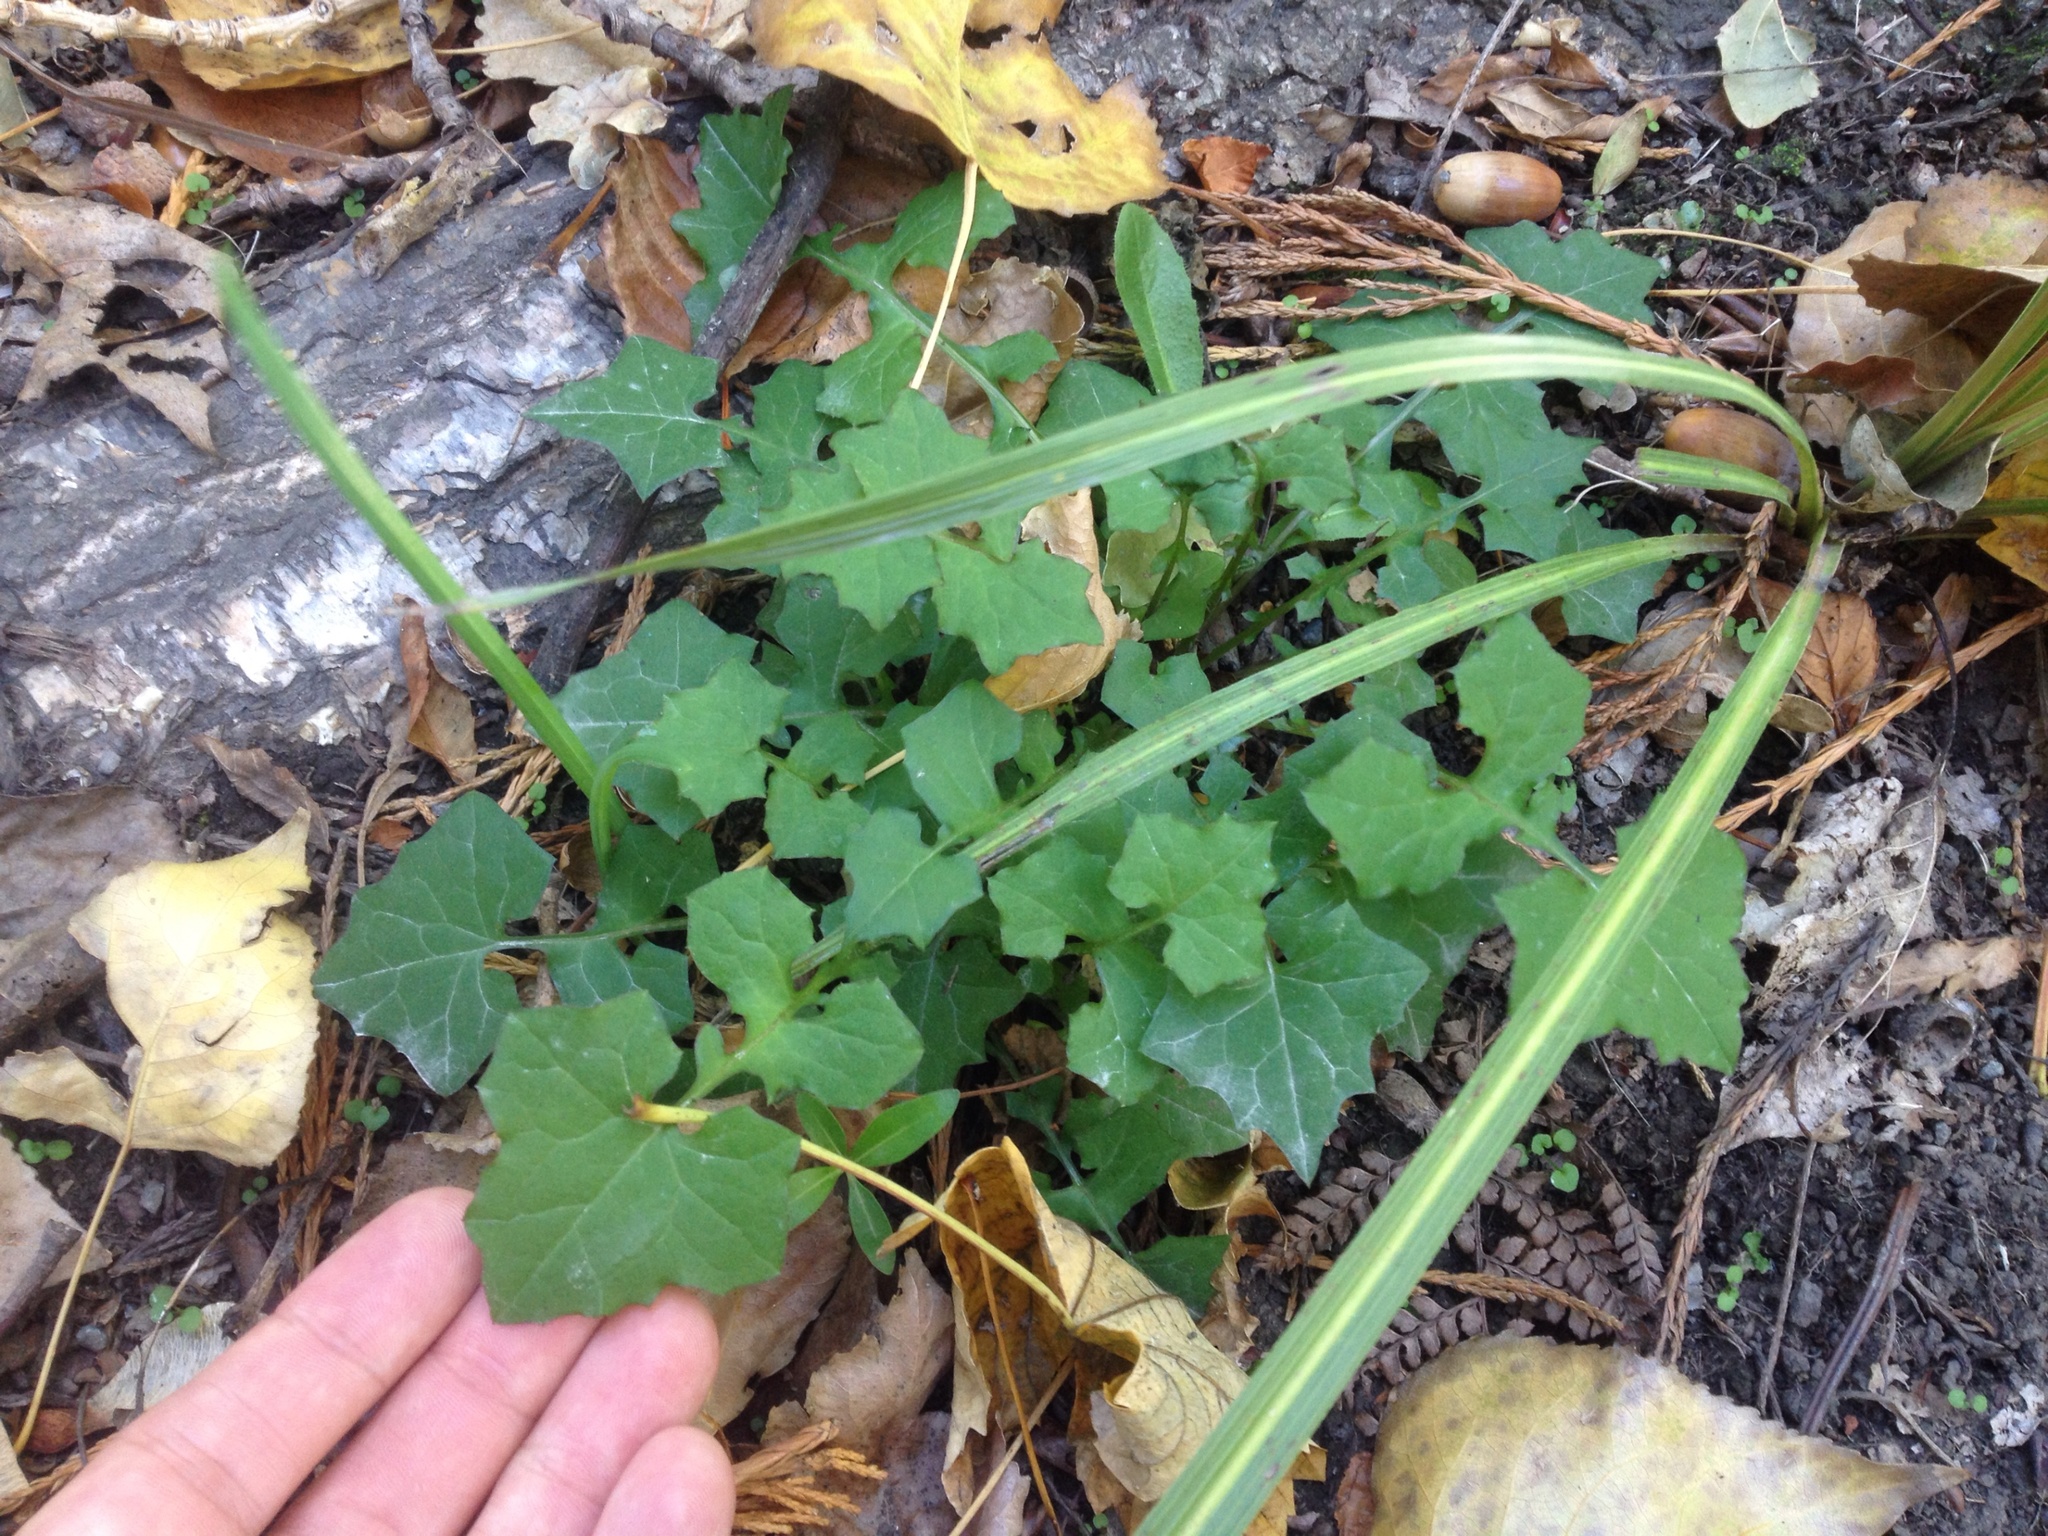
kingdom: Plantae
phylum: Tracheophyta
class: Magnoliopsida
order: Asterales
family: Asteraceae
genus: Mycelis
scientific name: Mycelis muralis
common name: Wall lettuce
